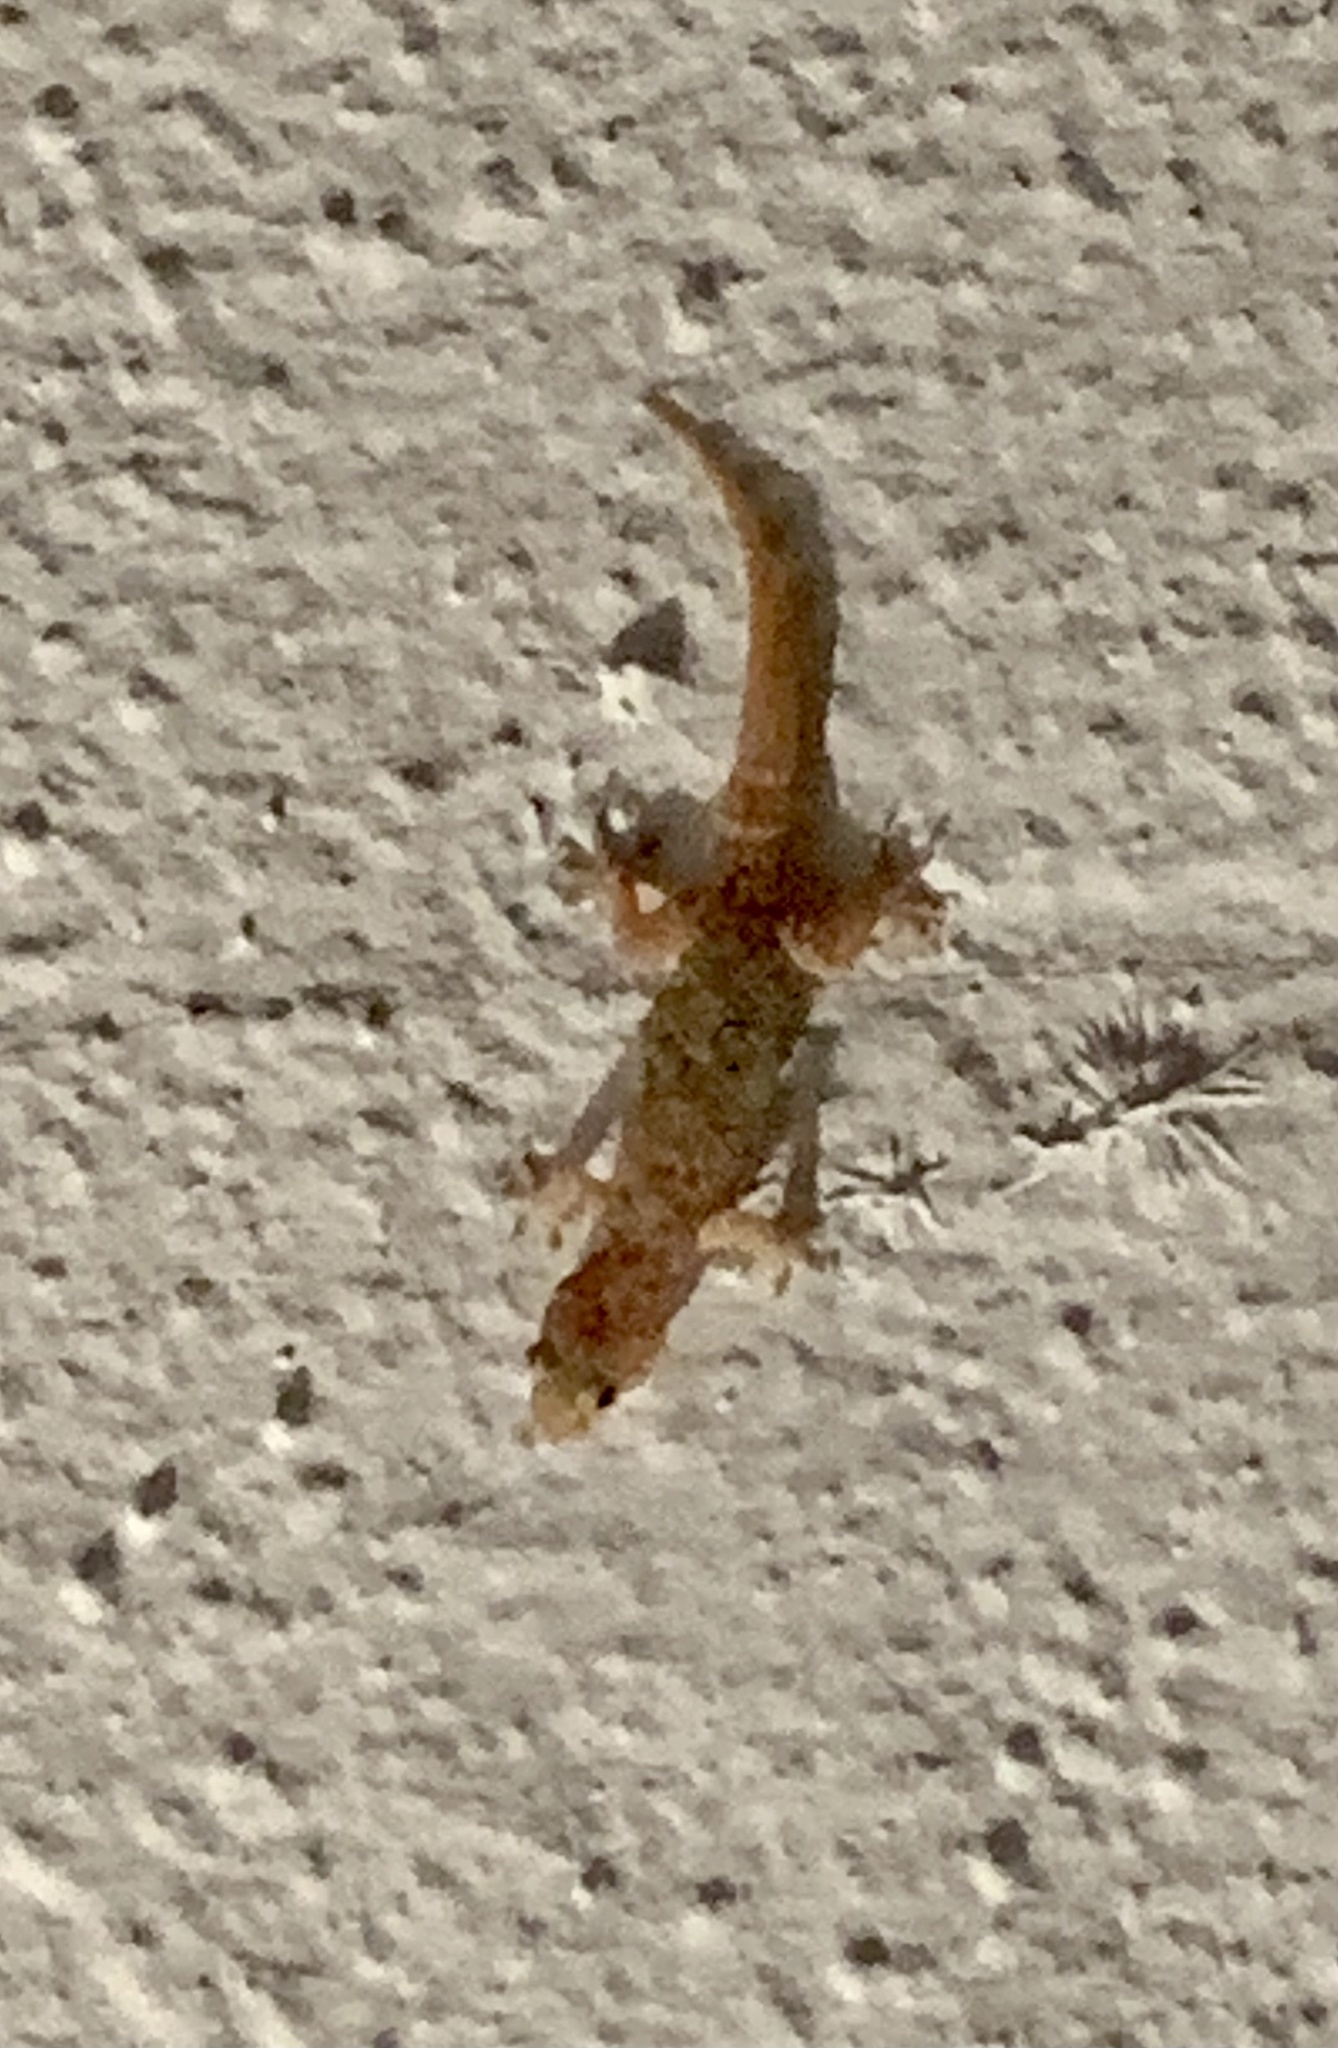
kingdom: Animalia
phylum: Chordata
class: Squamata
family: Gekkonidae
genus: Hemidactylus
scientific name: Hemidactylus turcicus
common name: Turkish gecko
